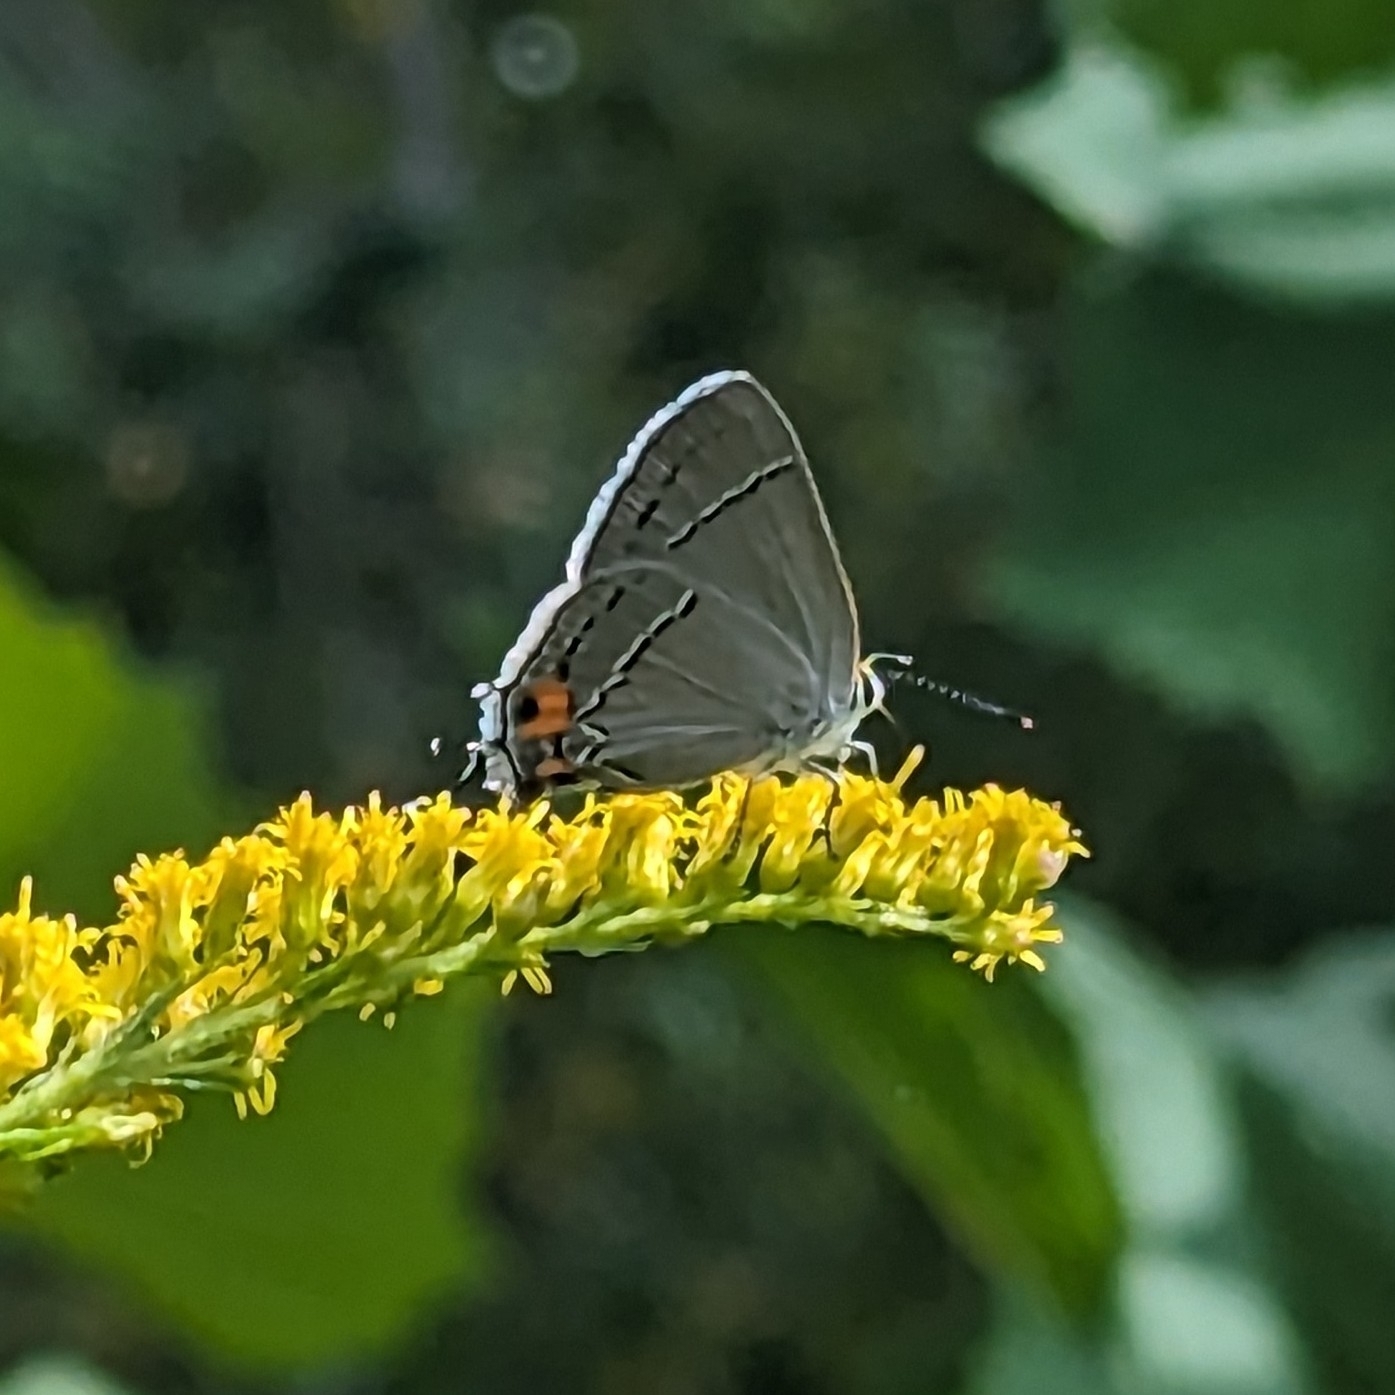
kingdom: Animalia
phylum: Arthropoda
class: Insecta
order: Lepidoptera
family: Lycaenidae
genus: Strymon
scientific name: Strymon melinus
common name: Gray hairstreak
